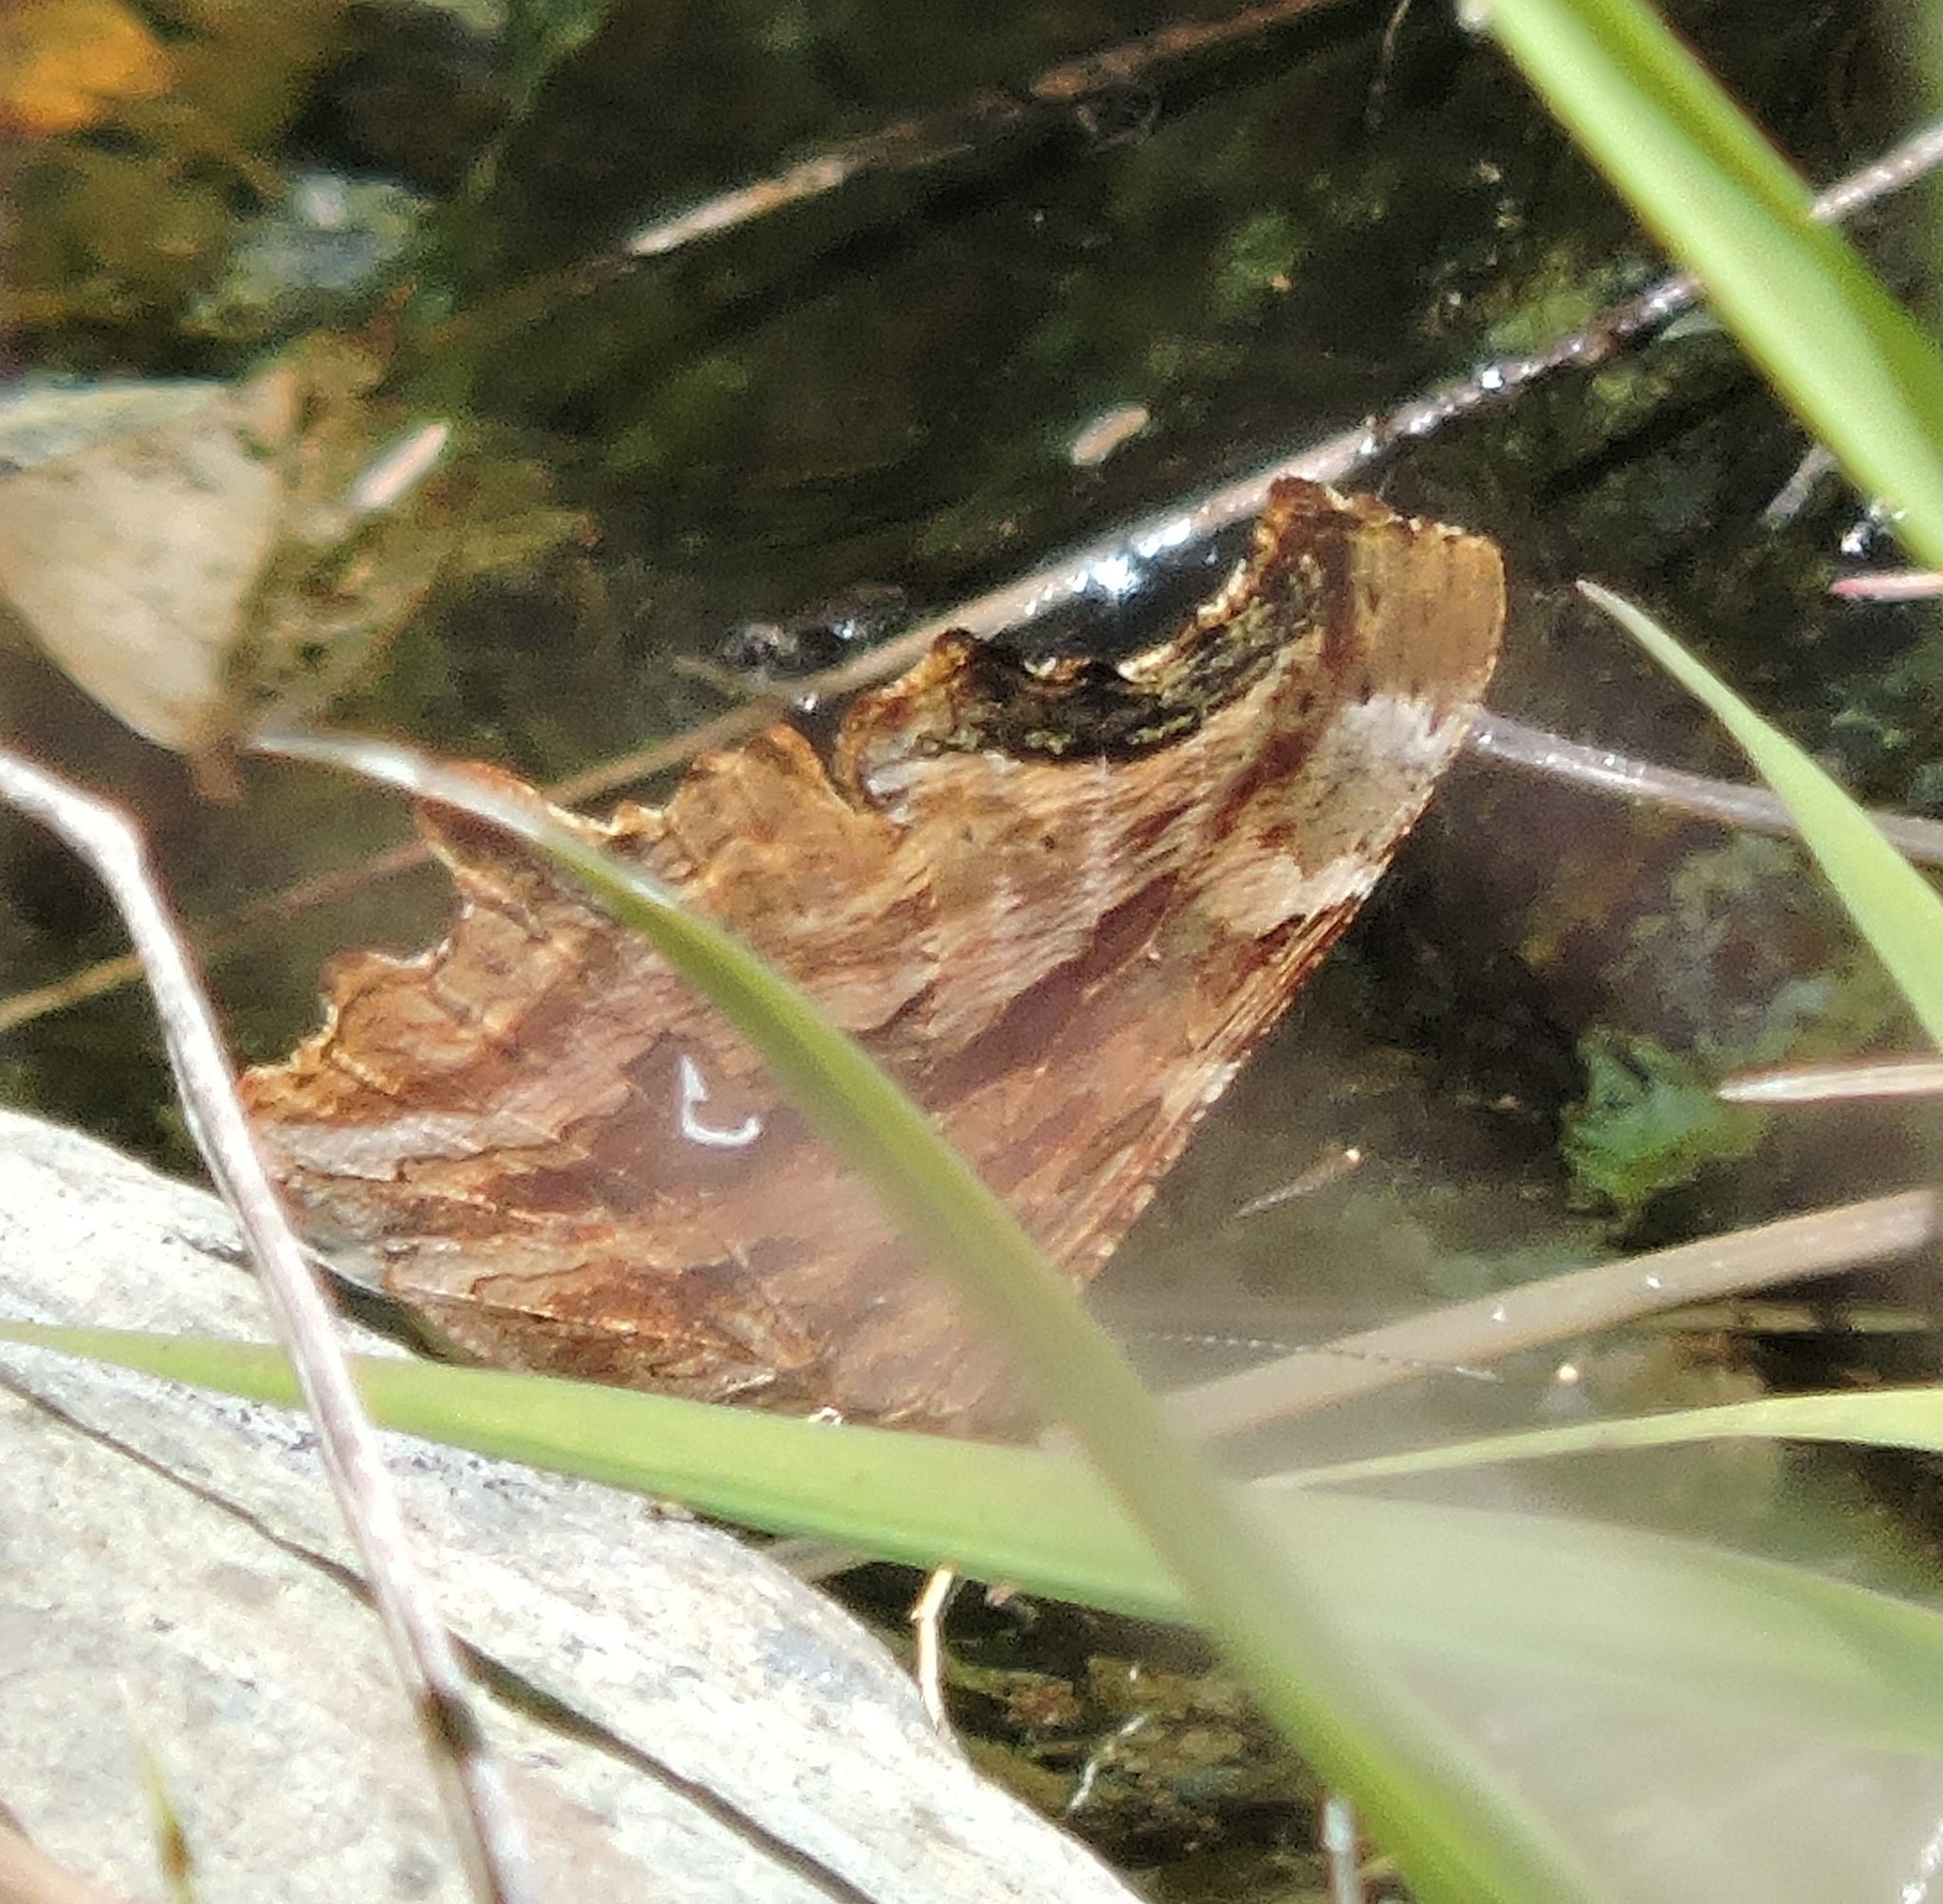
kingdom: Animalia
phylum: Arthropoda
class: Insecta
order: Lepidoptera
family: Nymphalidae
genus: Polygonia
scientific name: Polygonia satyrus
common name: Satyr angle wing
